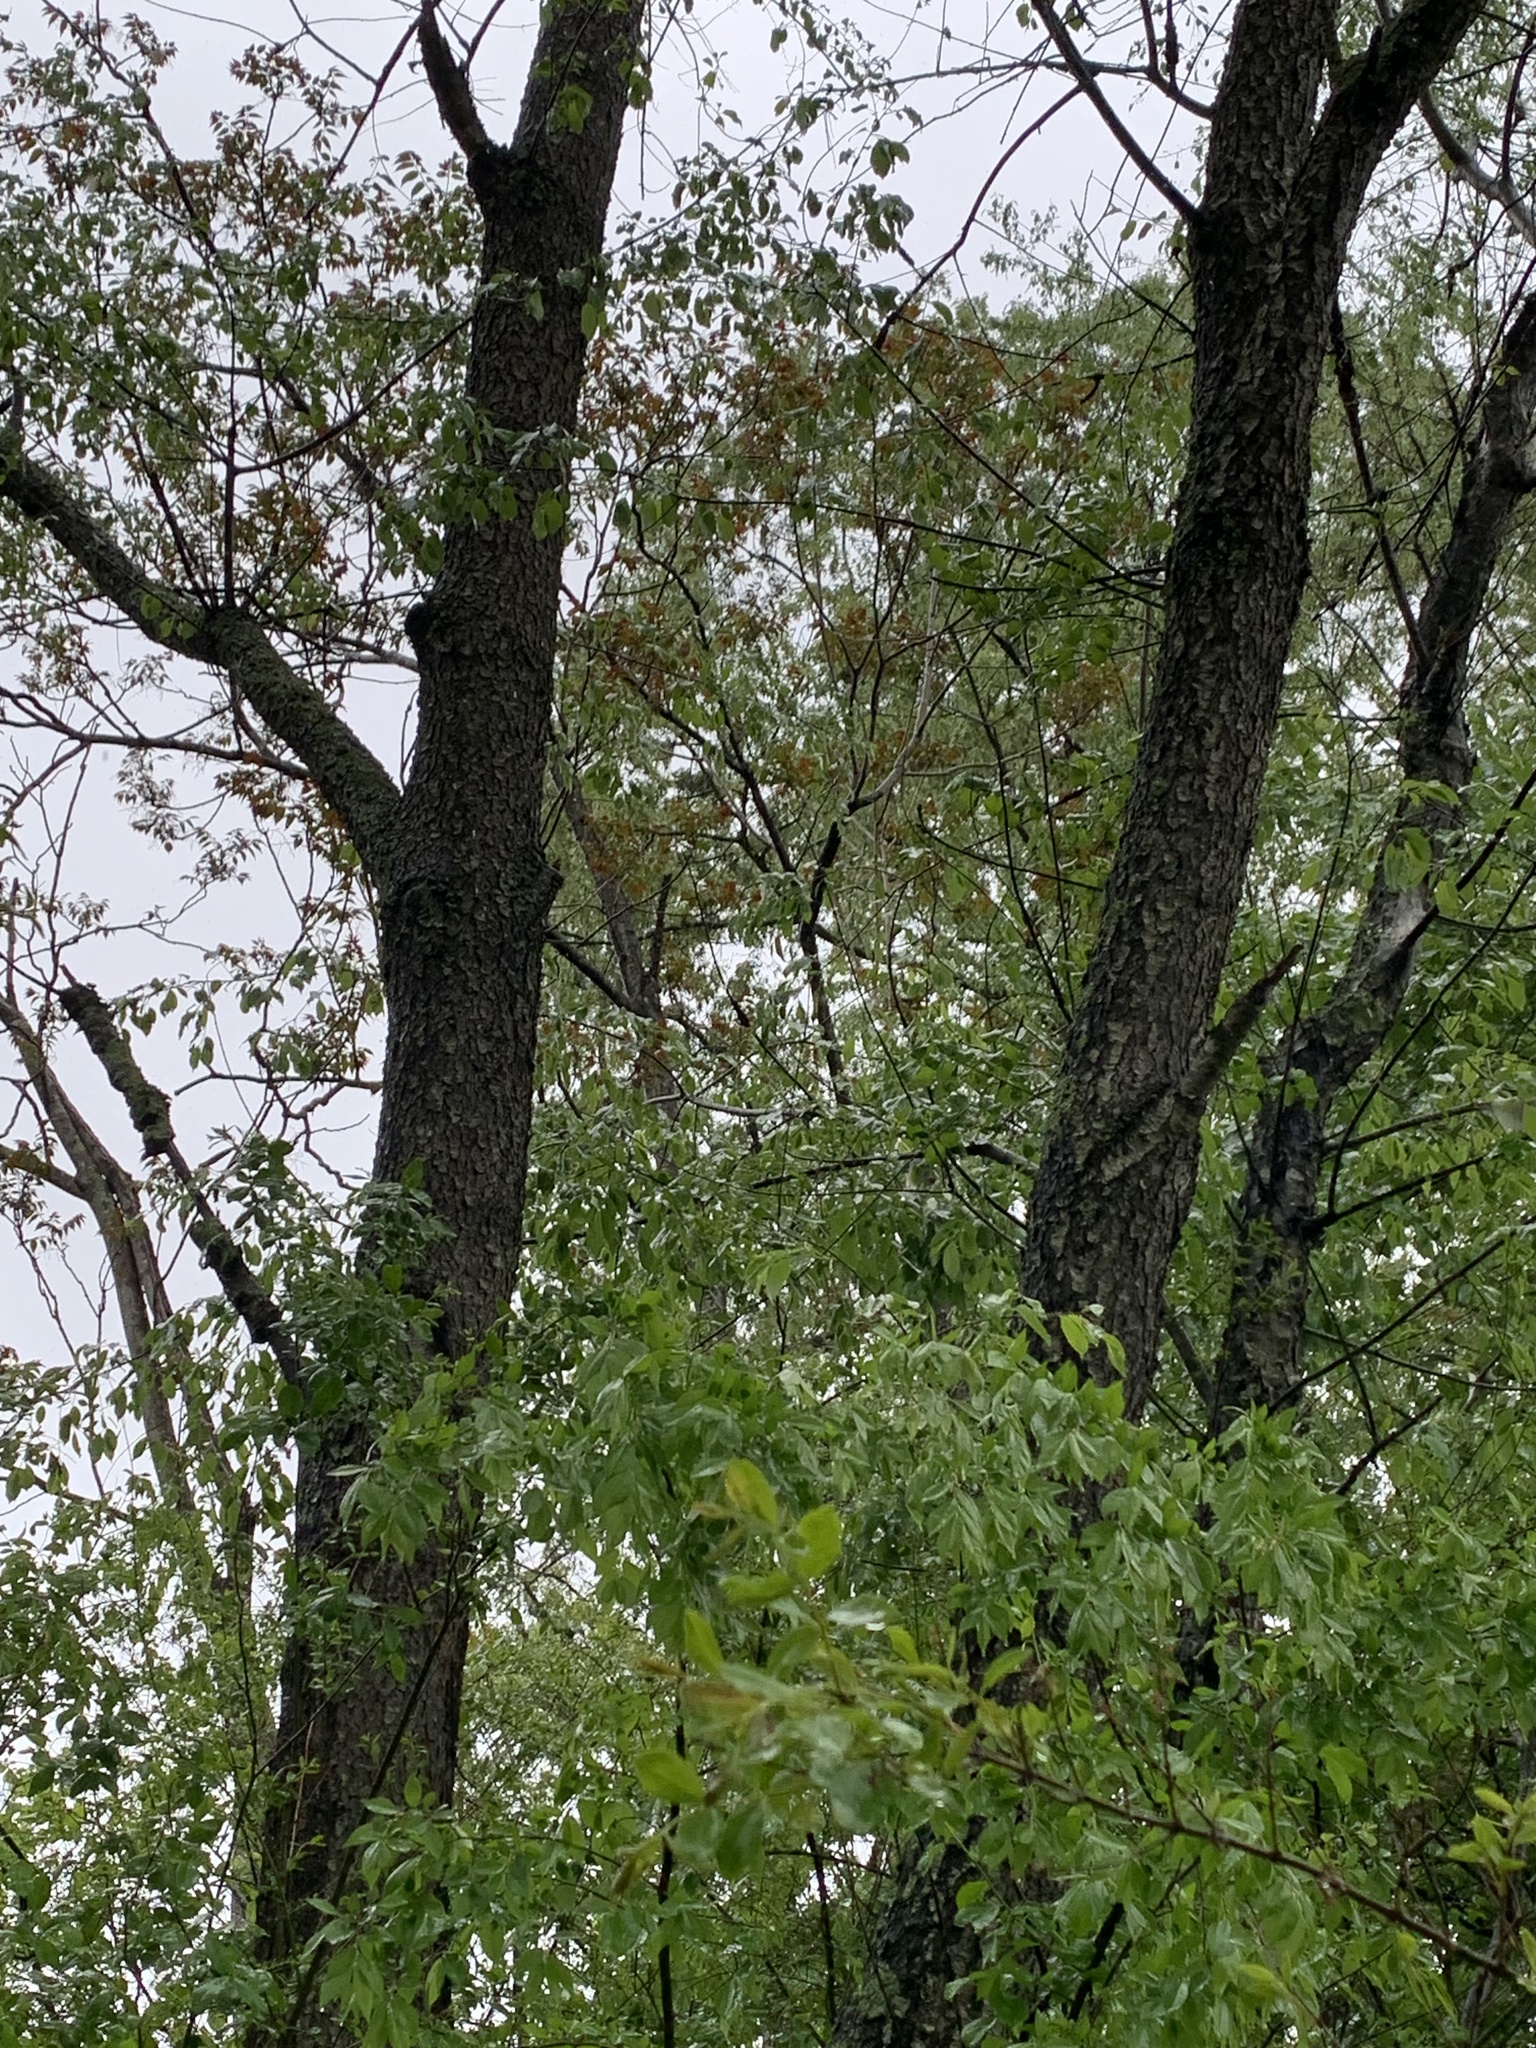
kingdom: Plantae
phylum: Tracheophyta
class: Magnoliopsida
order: Rosales
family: Rosaceae
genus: Prunus
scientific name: Prunus serotina
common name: Black cherry
